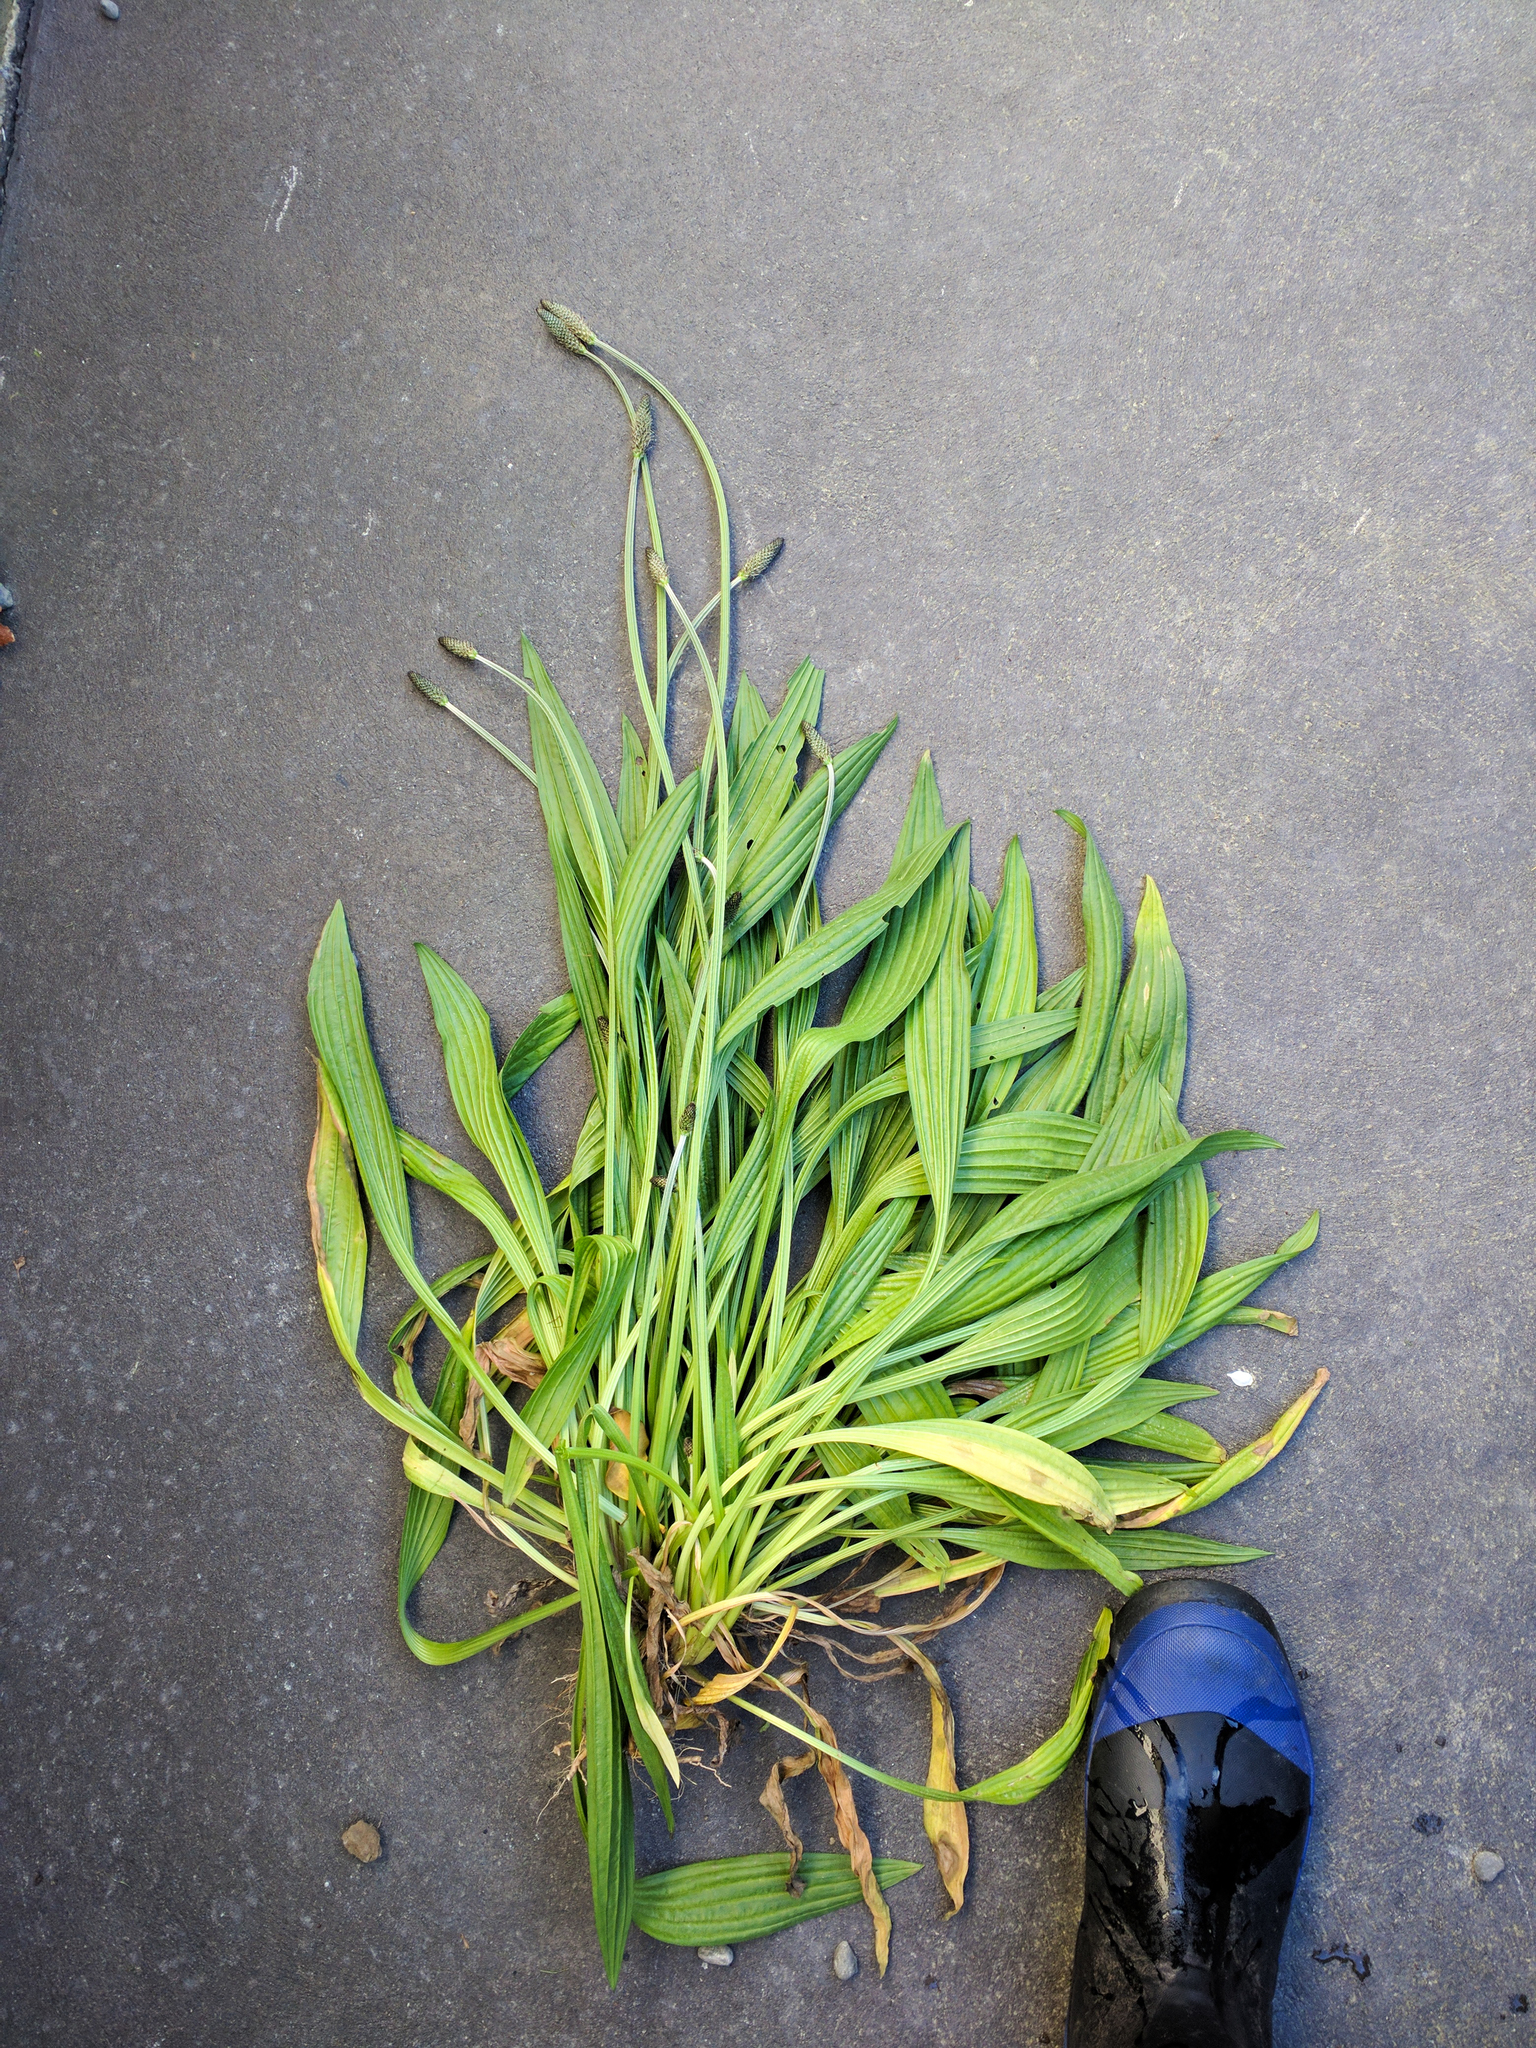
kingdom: Plantae
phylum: Tracheophyta
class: Magnoliopsida
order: Lamiales
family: Plantaginaceae
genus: Plantago
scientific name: Plantago lanceolata
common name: Ribwort plantain
